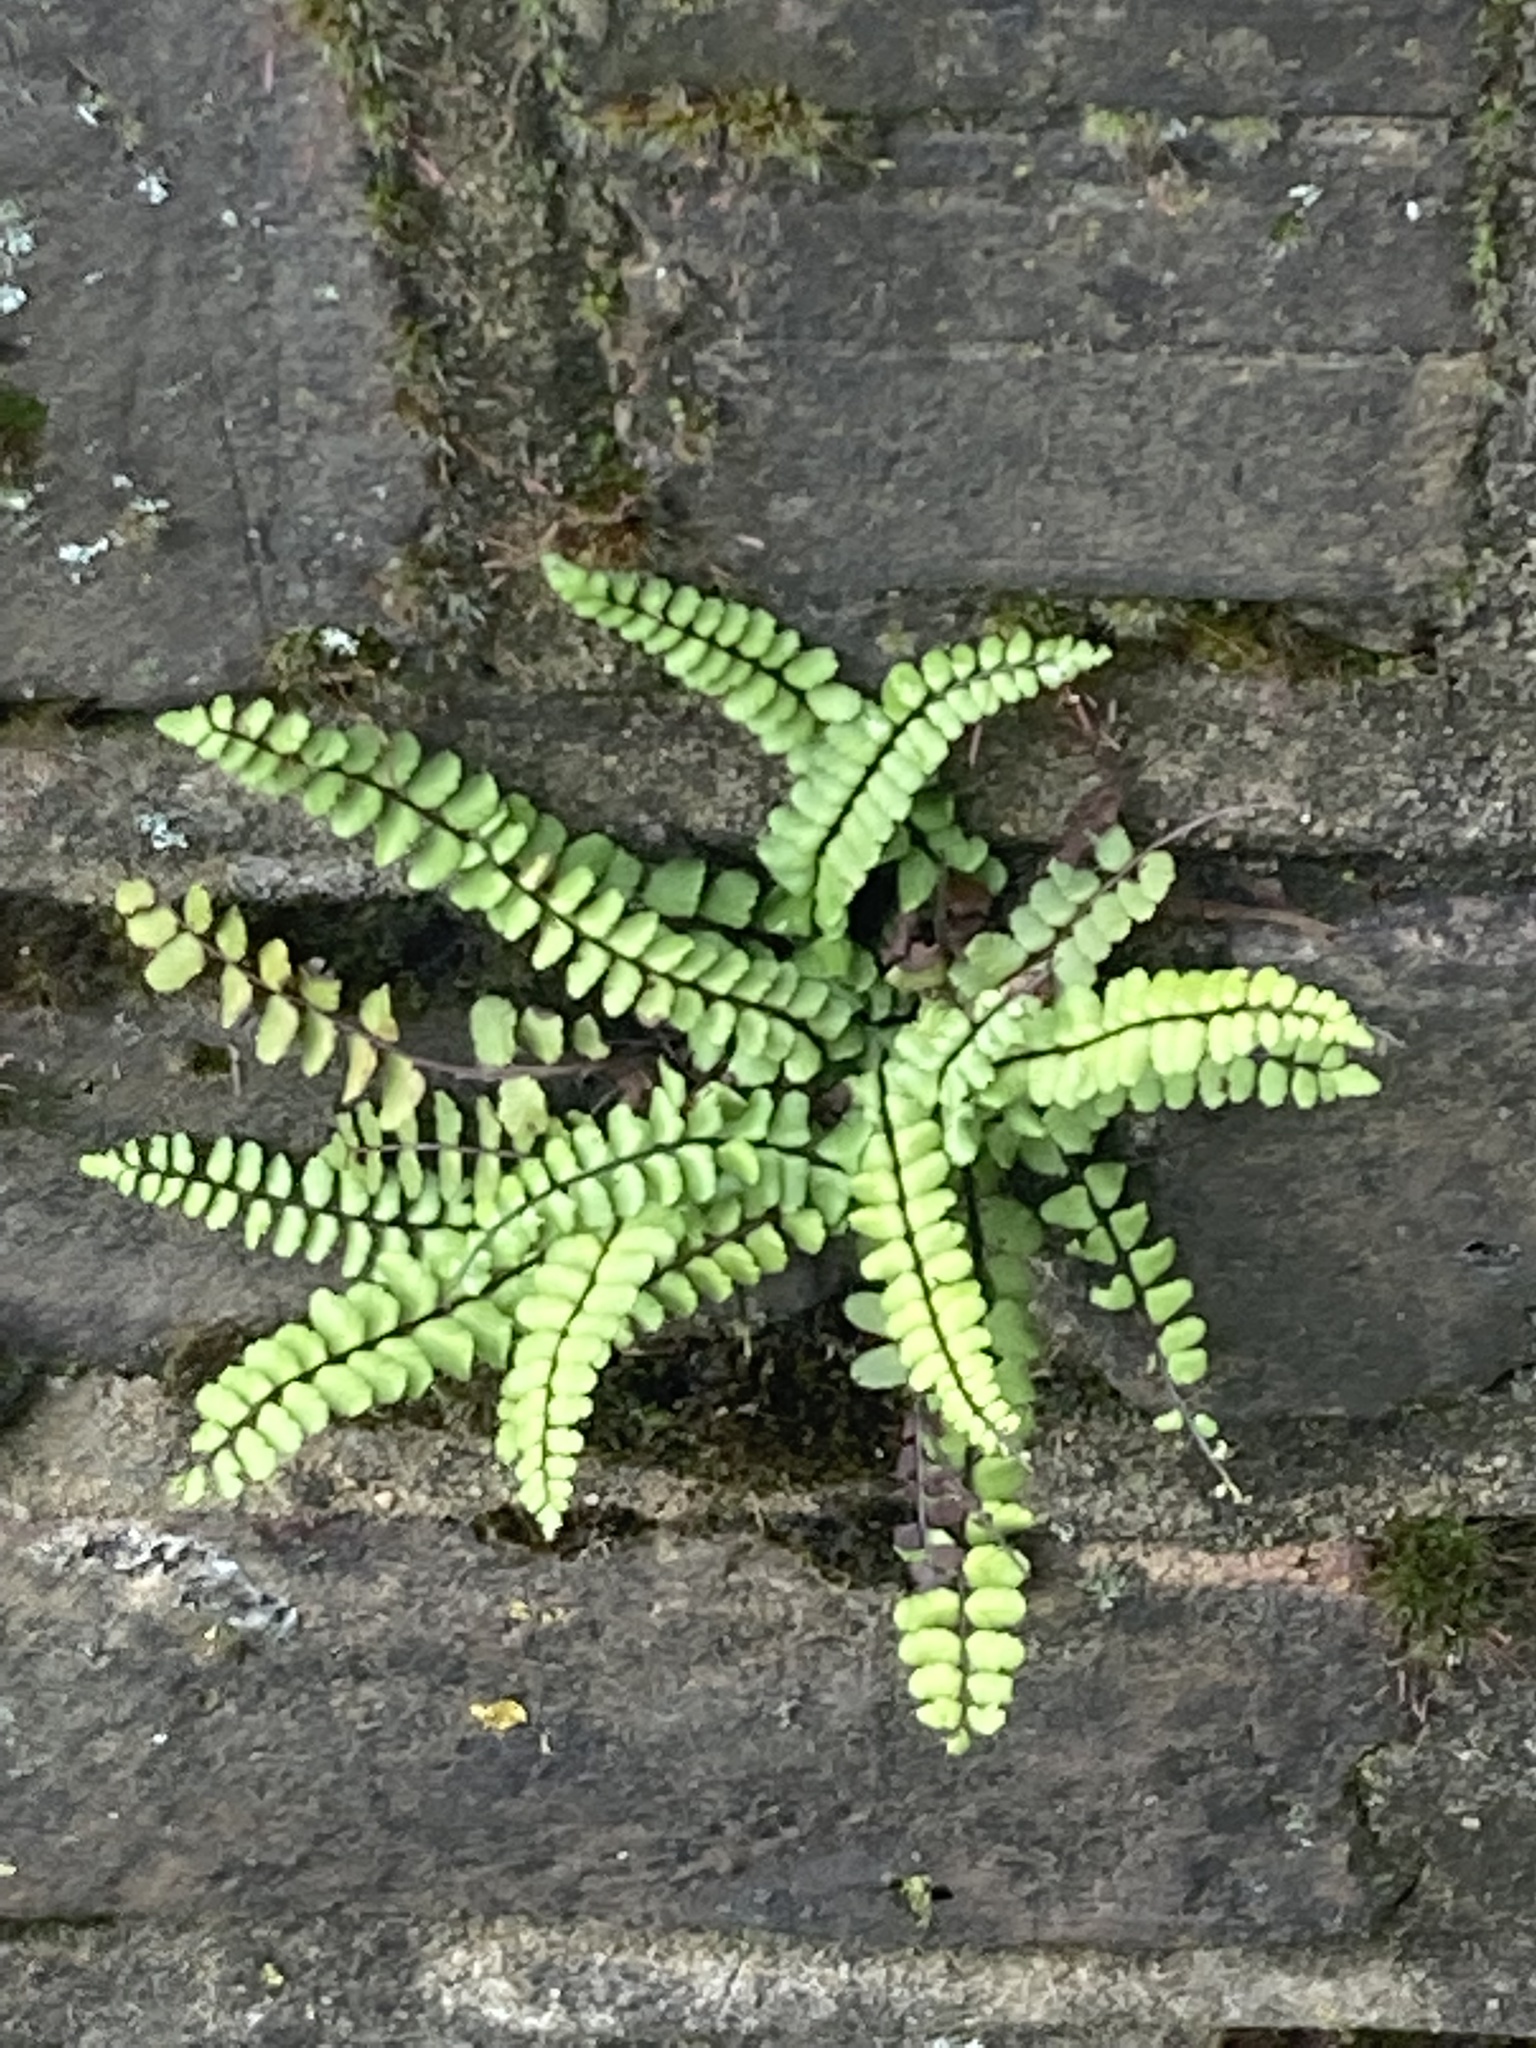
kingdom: Plantae
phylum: Tracheophyta
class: Polypodiopsida
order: Polypodiales
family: Aspleniaceae
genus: Asplenium
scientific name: Asplenium trichomanes
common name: Maidenhair spleenwort
